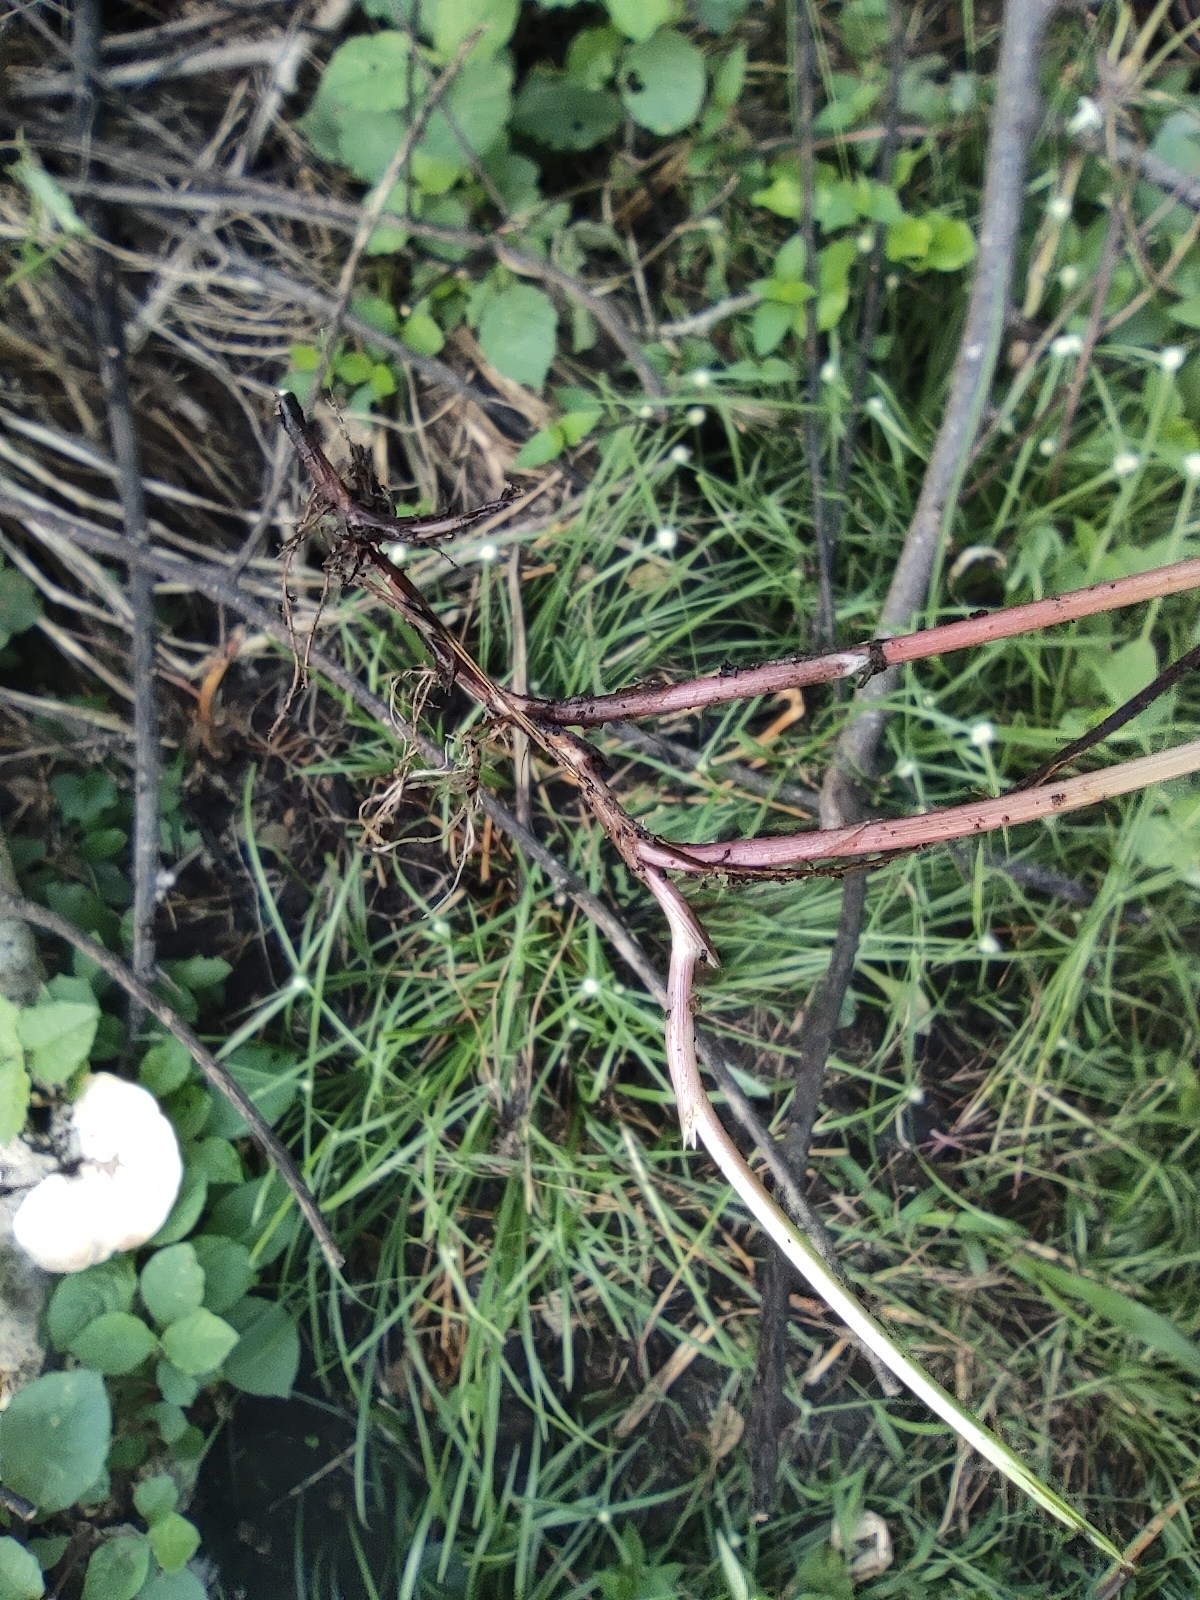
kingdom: Plantae
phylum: Tracheophyta
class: Liliopsida
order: Poales
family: Cyperaceae
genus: Cyperus
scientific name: Cyperus mindorensis
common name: Flatsedge
